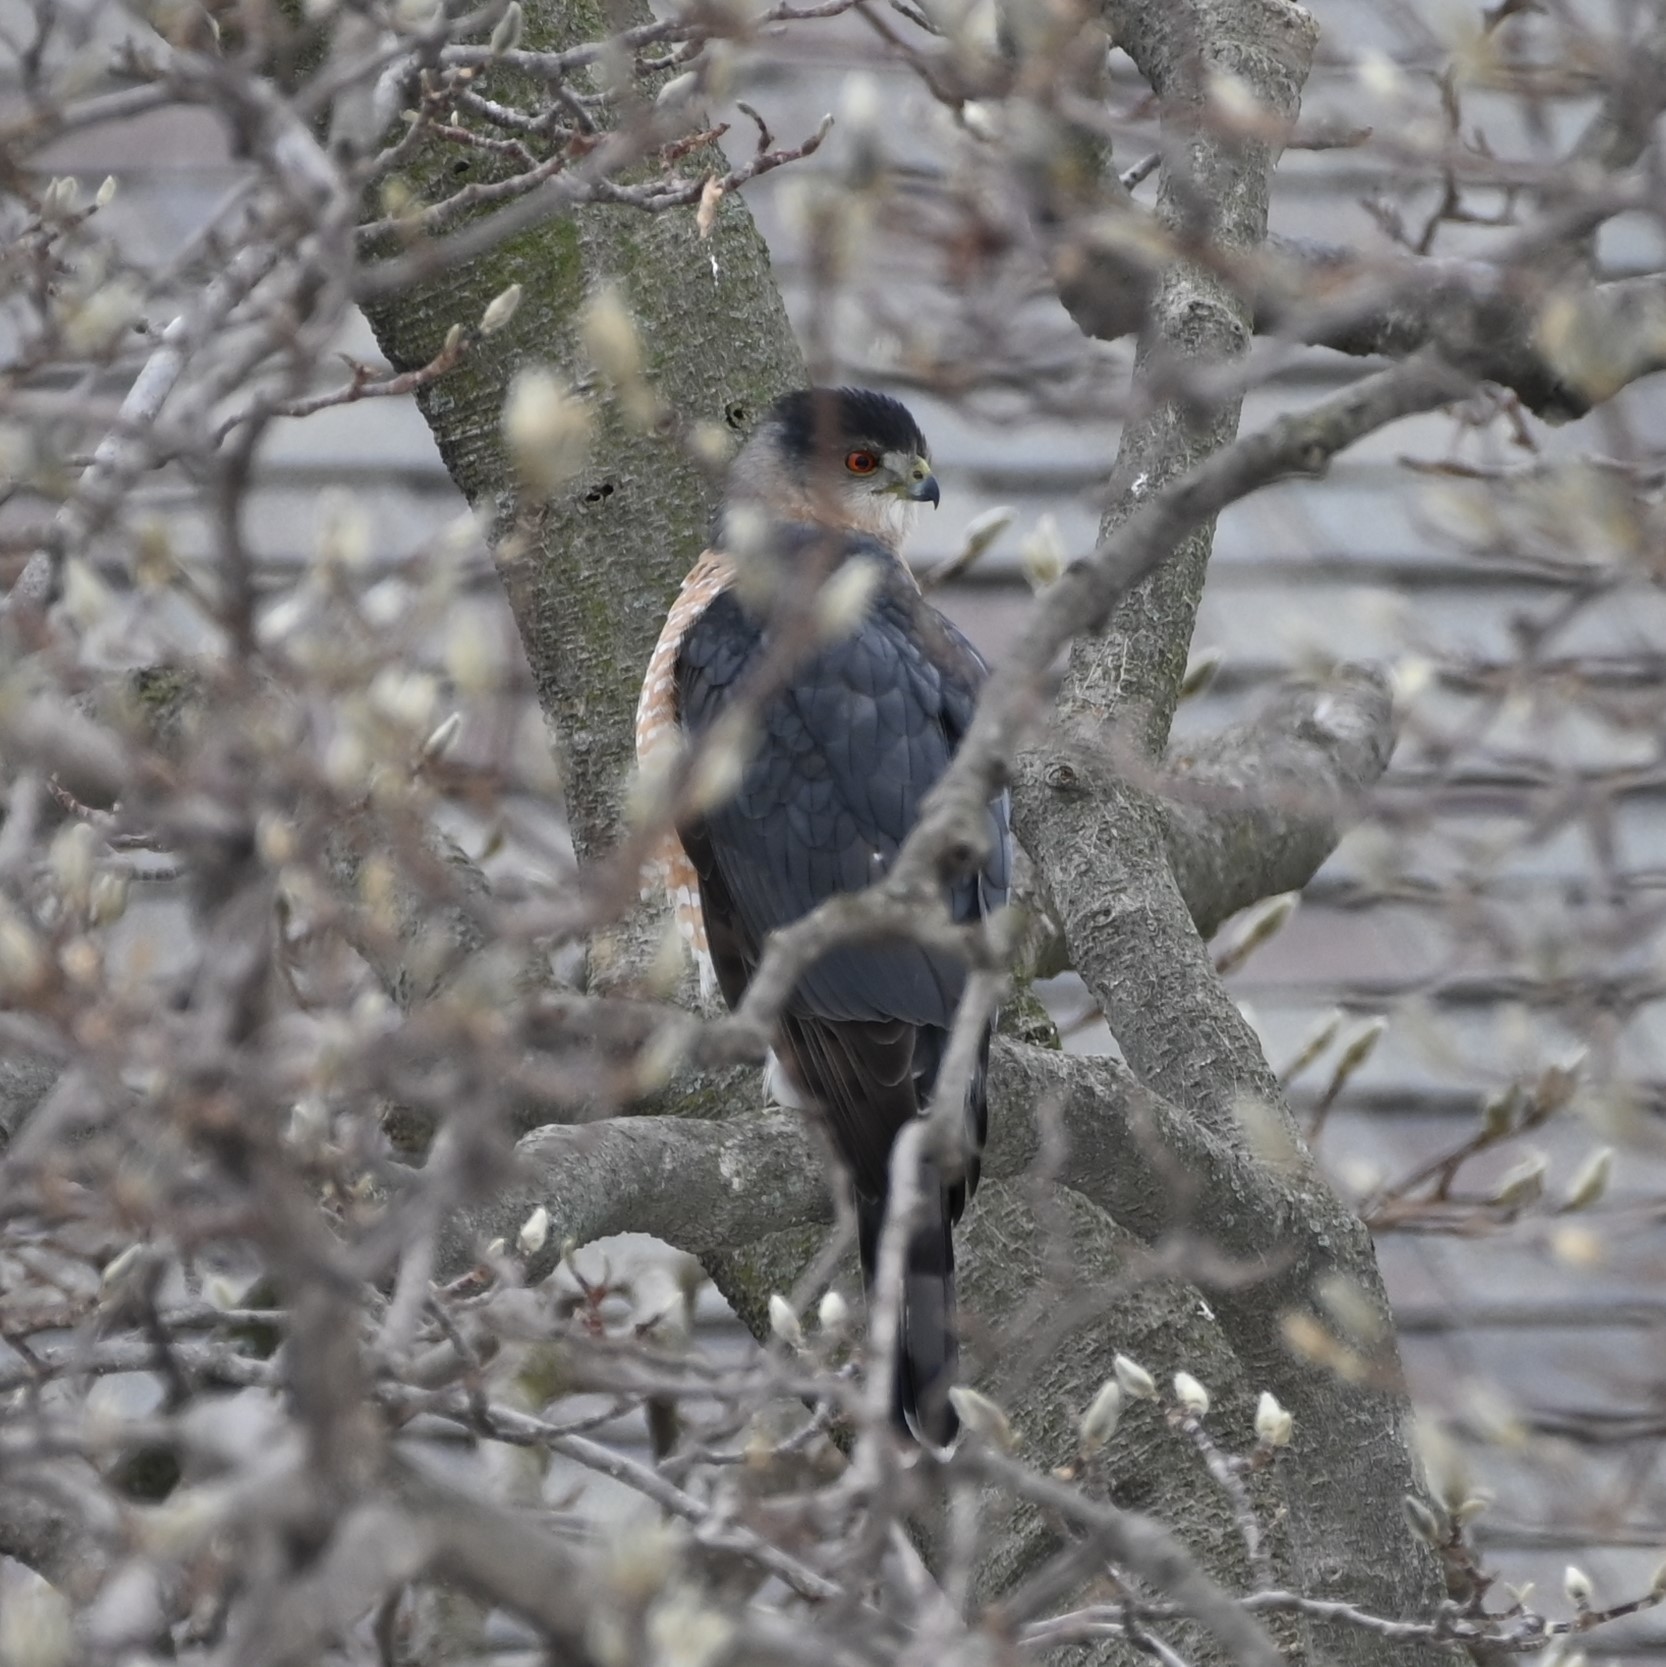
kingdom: Animalia
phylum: Chordata
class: Aves
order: Accipitriformes
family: Accipitridae
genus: Accipiter
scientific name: Accipiter cooperii
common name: Cooper's hawk
